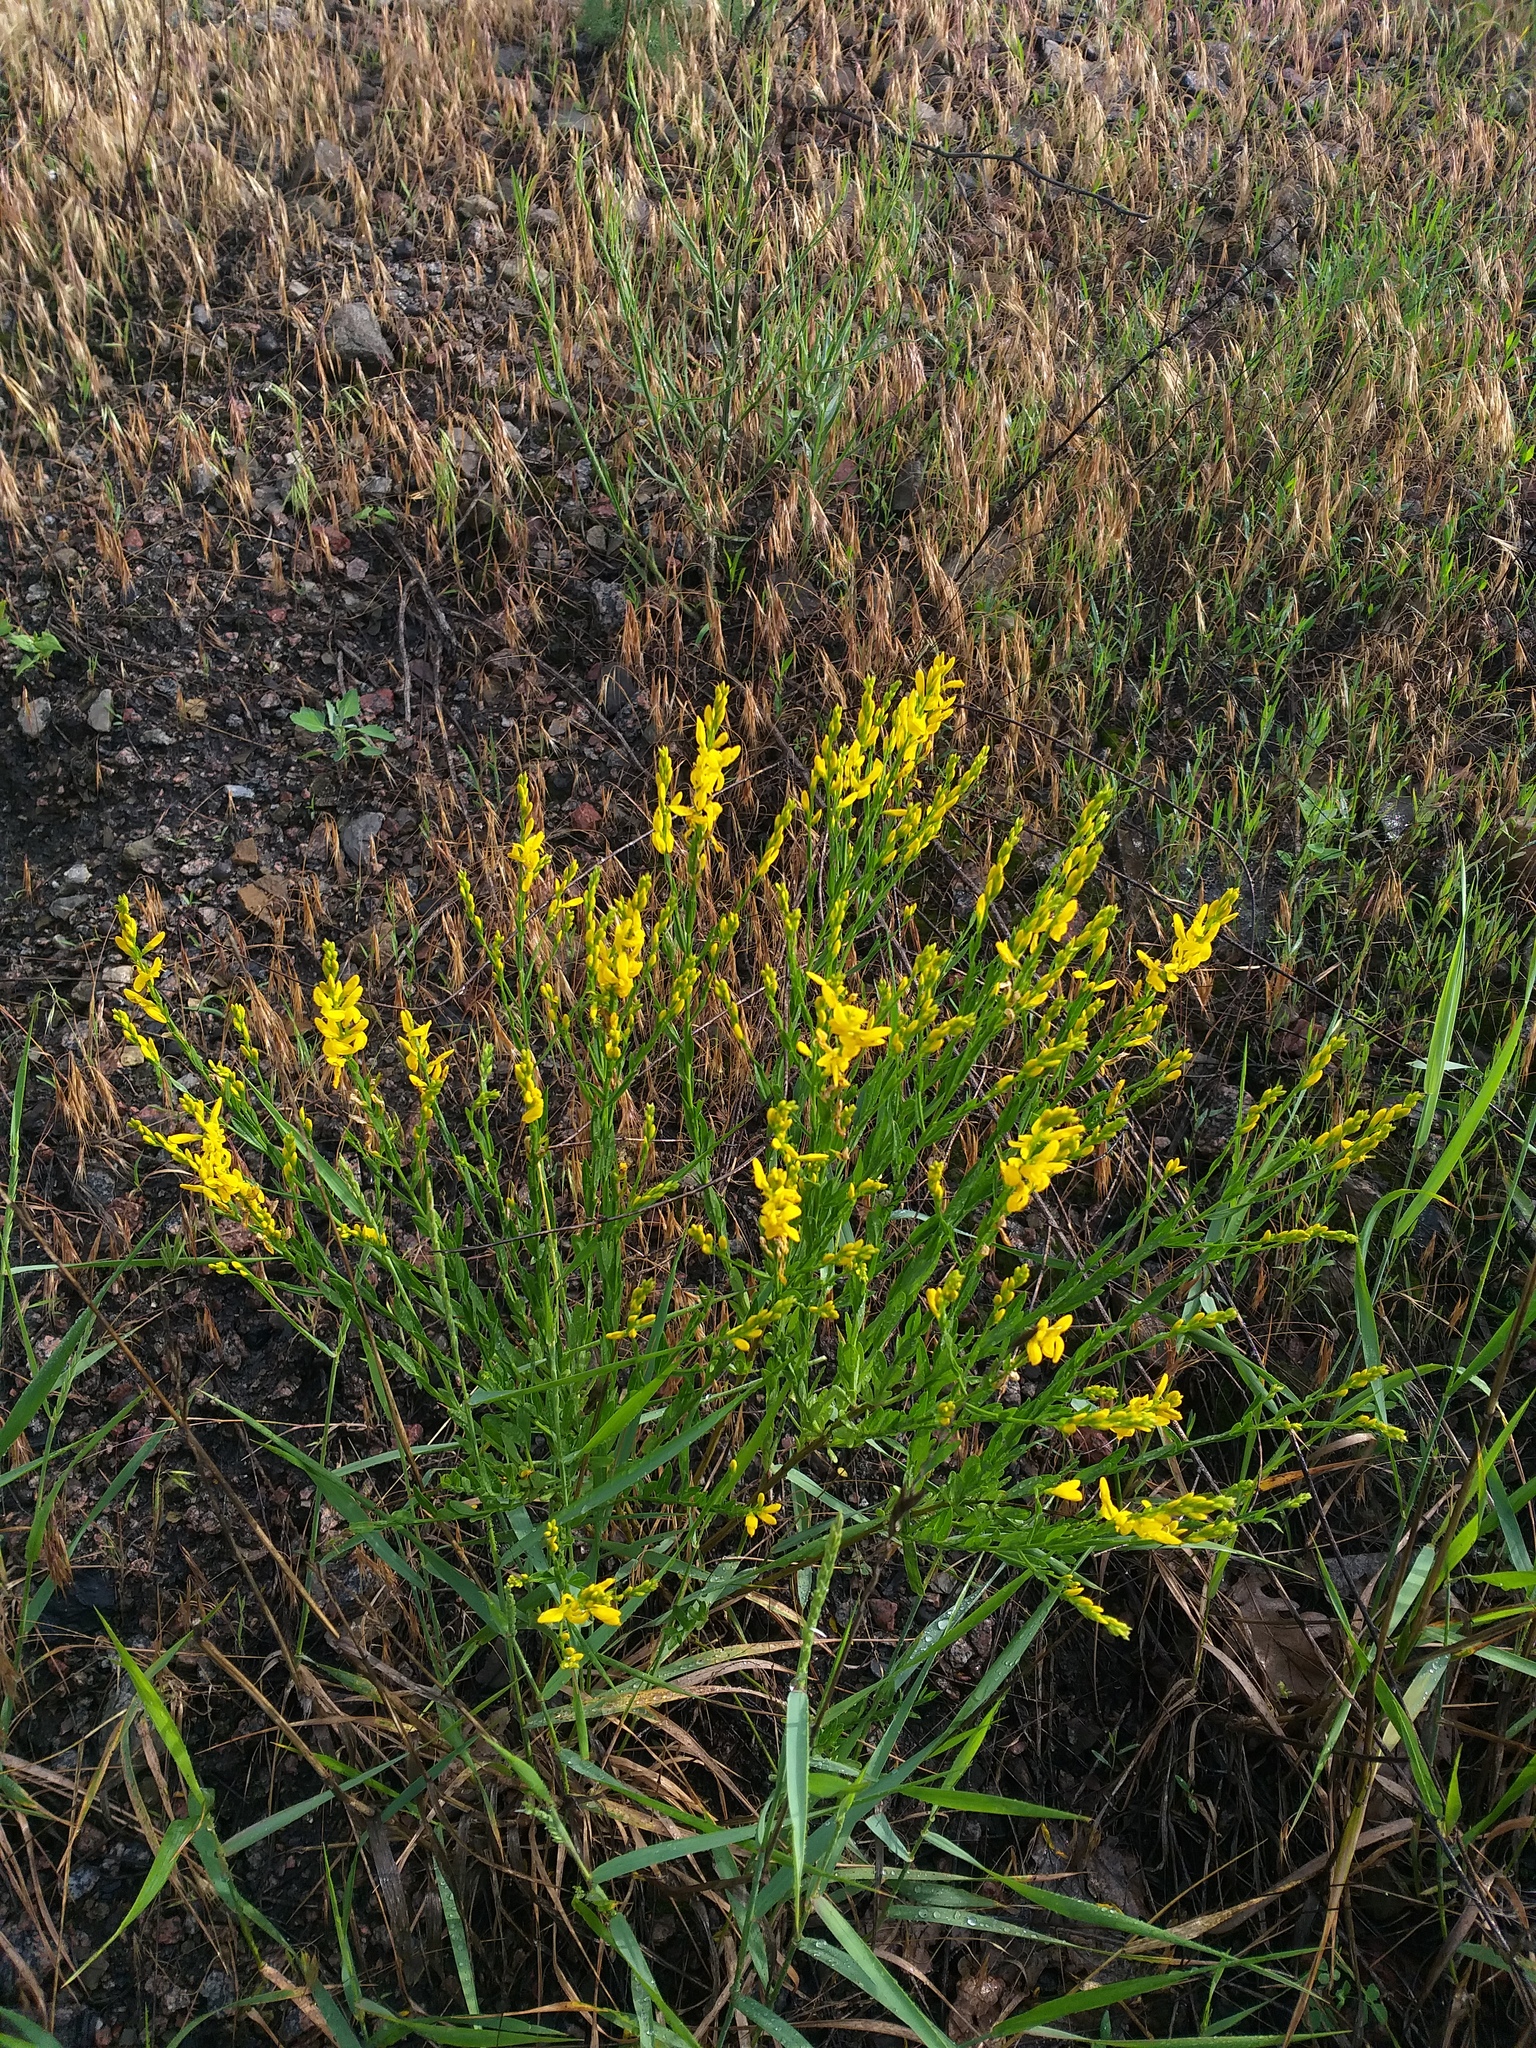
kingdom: Plantae
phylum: Tracheophyta
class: Magnoliopsida
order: Fabales
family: Fabaceae
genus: Genista
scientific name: Genista tinctoria
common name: Dyer's greenweed
